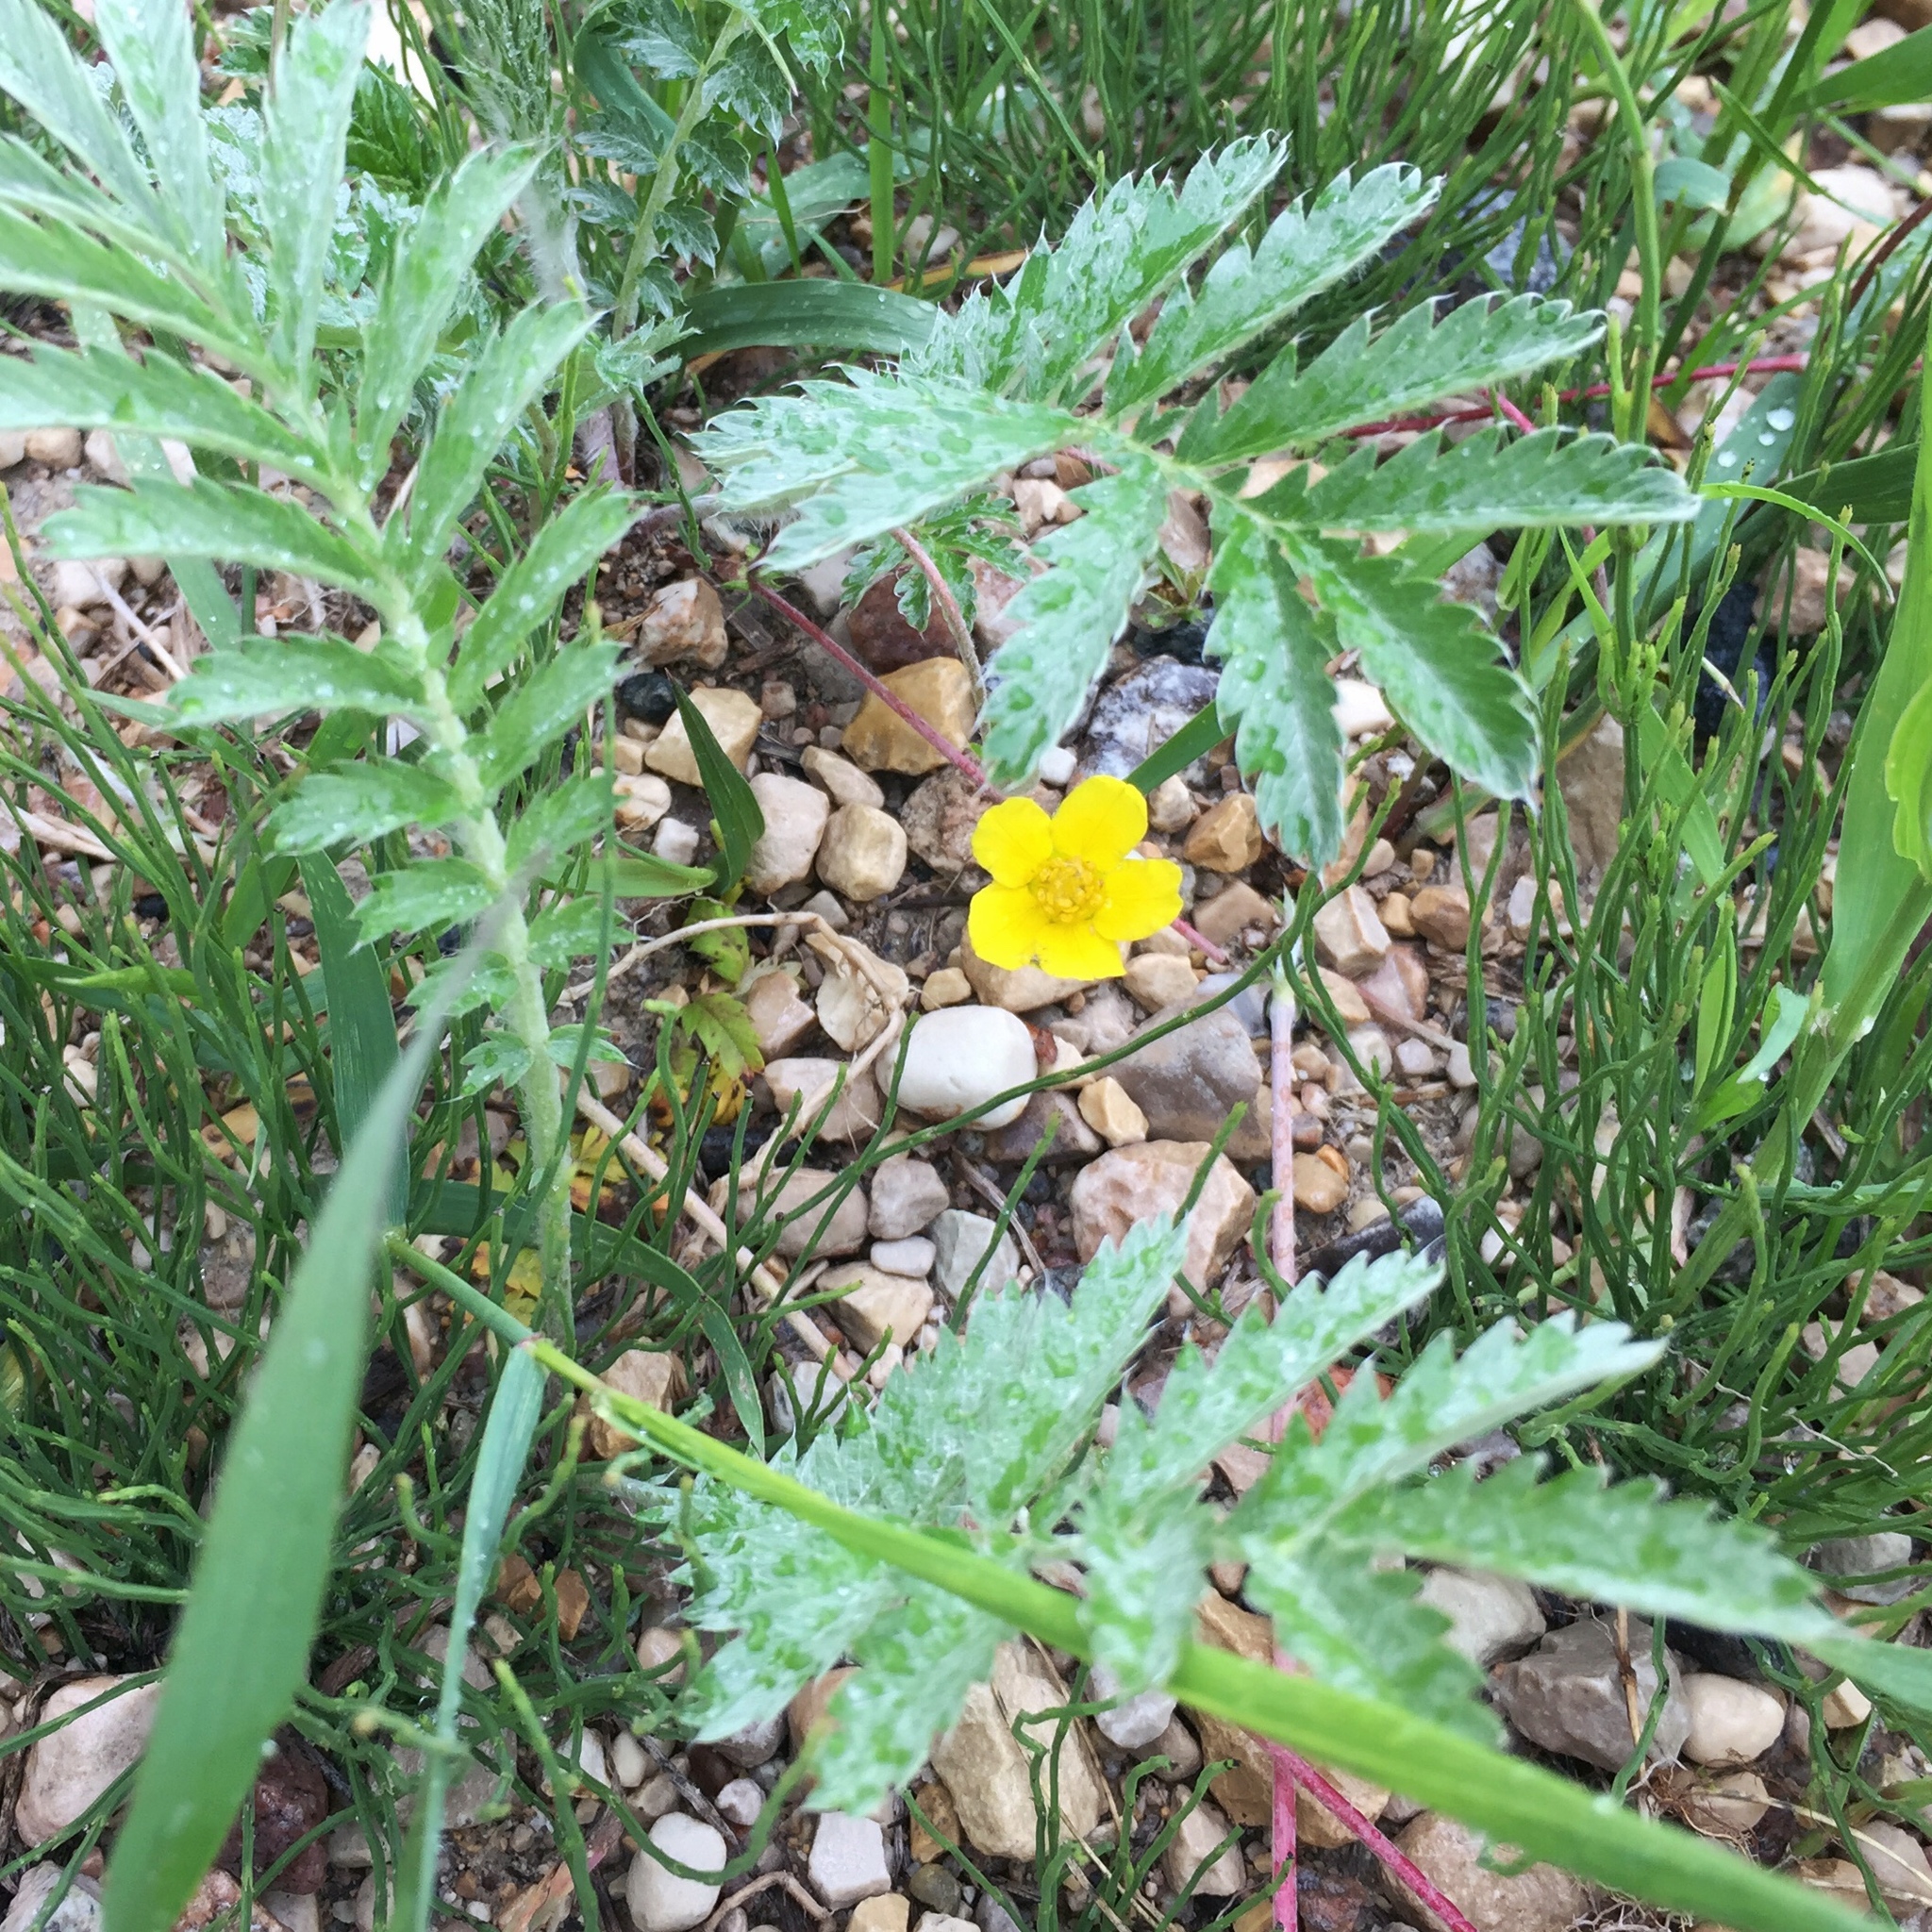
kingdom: Plantae
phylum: Tracheophyta
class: Magnoliopsida
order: Rosales
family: Rosaceae
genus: Argentina
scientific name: Argentina anserina
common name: Common silverweed
